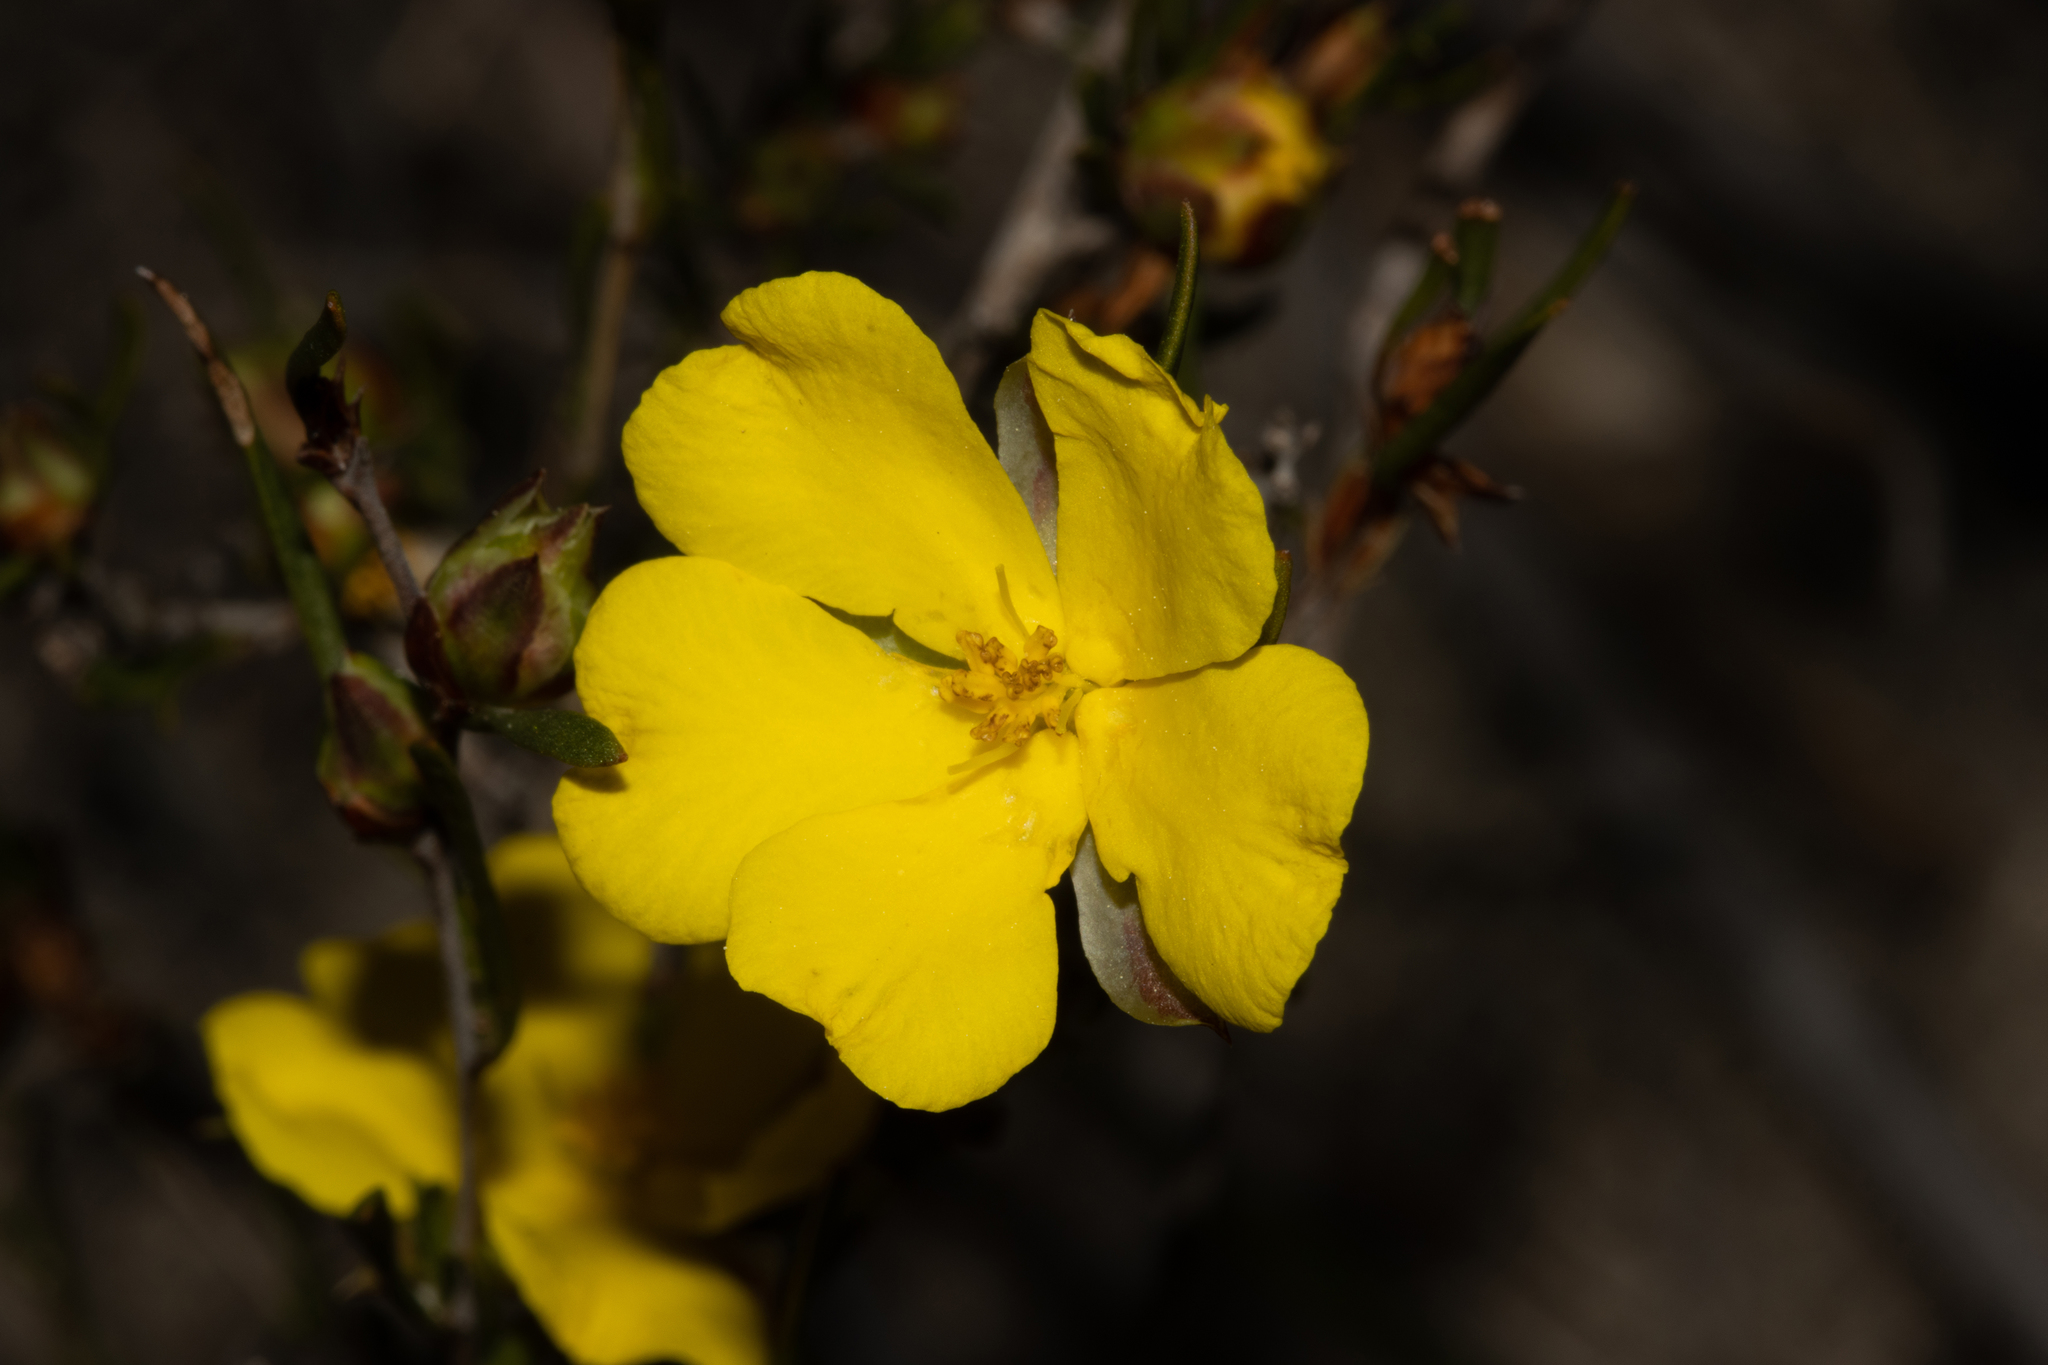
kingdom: Plantae
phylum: Tracheophyta
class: Magnoliopsida
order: Dilleniales
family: Dilleniaceae
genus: Hibbertia
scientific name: Hibbertia virgata
